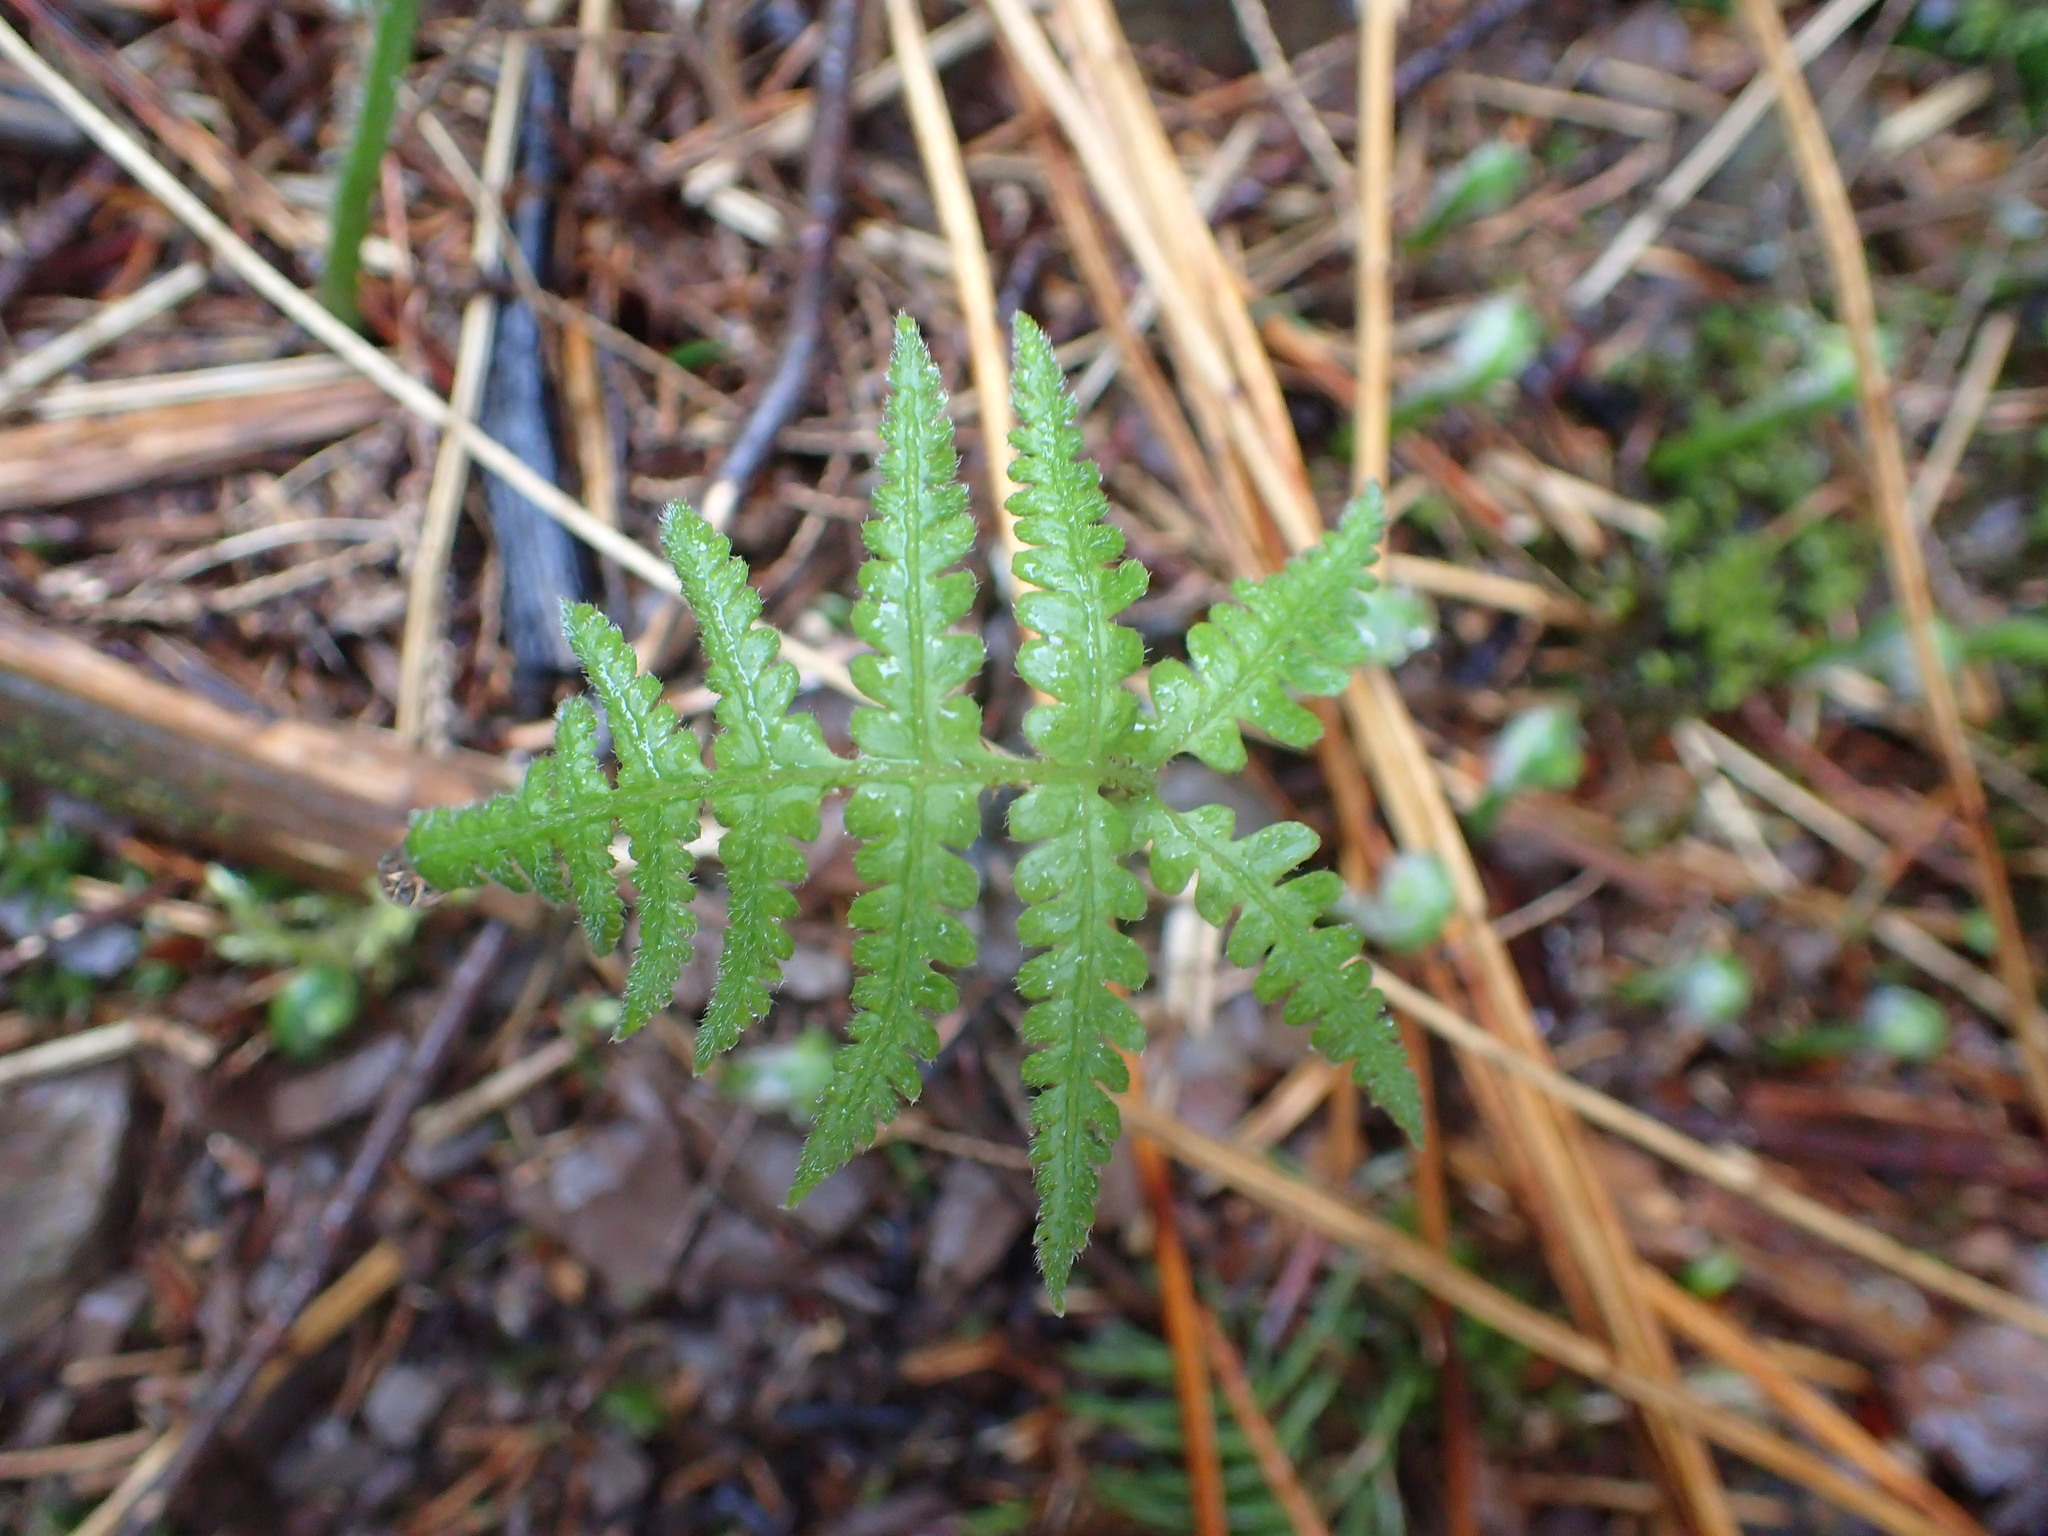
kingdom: Plantae
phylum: Tracheophyta
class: Polypodiopsida
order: Polypodiales
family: Thelypteridaceae
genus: Phegopteris
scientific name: Phegopteris connectilis
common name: Beech fern
